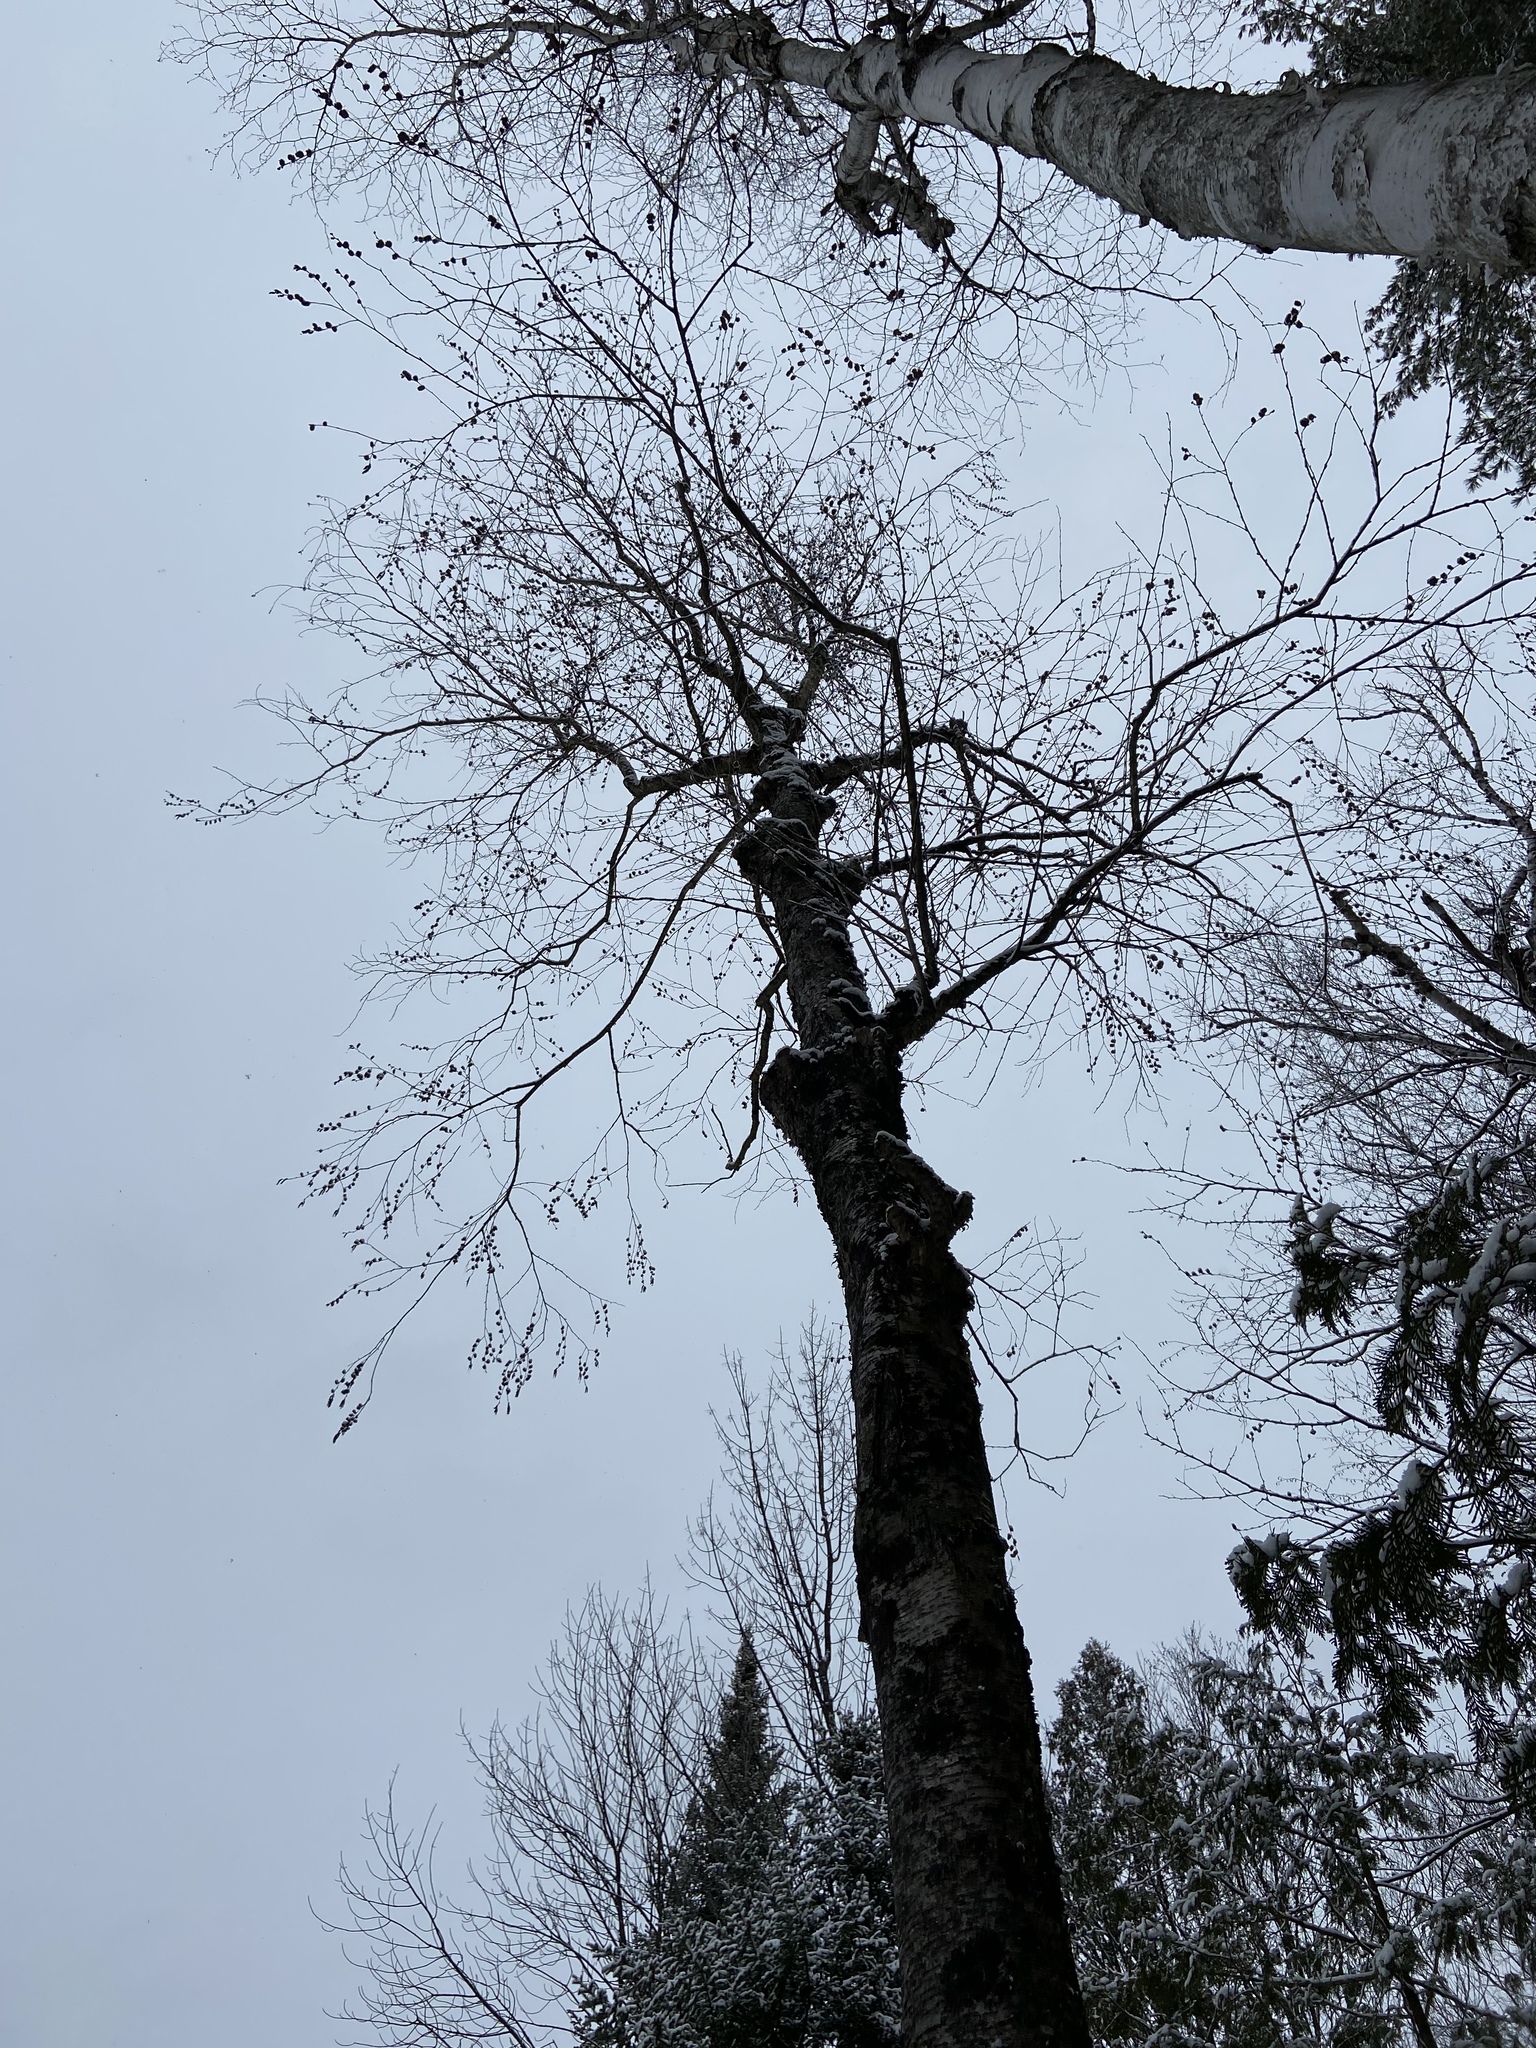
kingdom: Plantae
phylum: Tracheophyta
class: Magnoliopsida
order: Fagales
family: Betulaceae
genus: Betula
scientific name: Betula alleghaniensis
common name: Yellow birch
